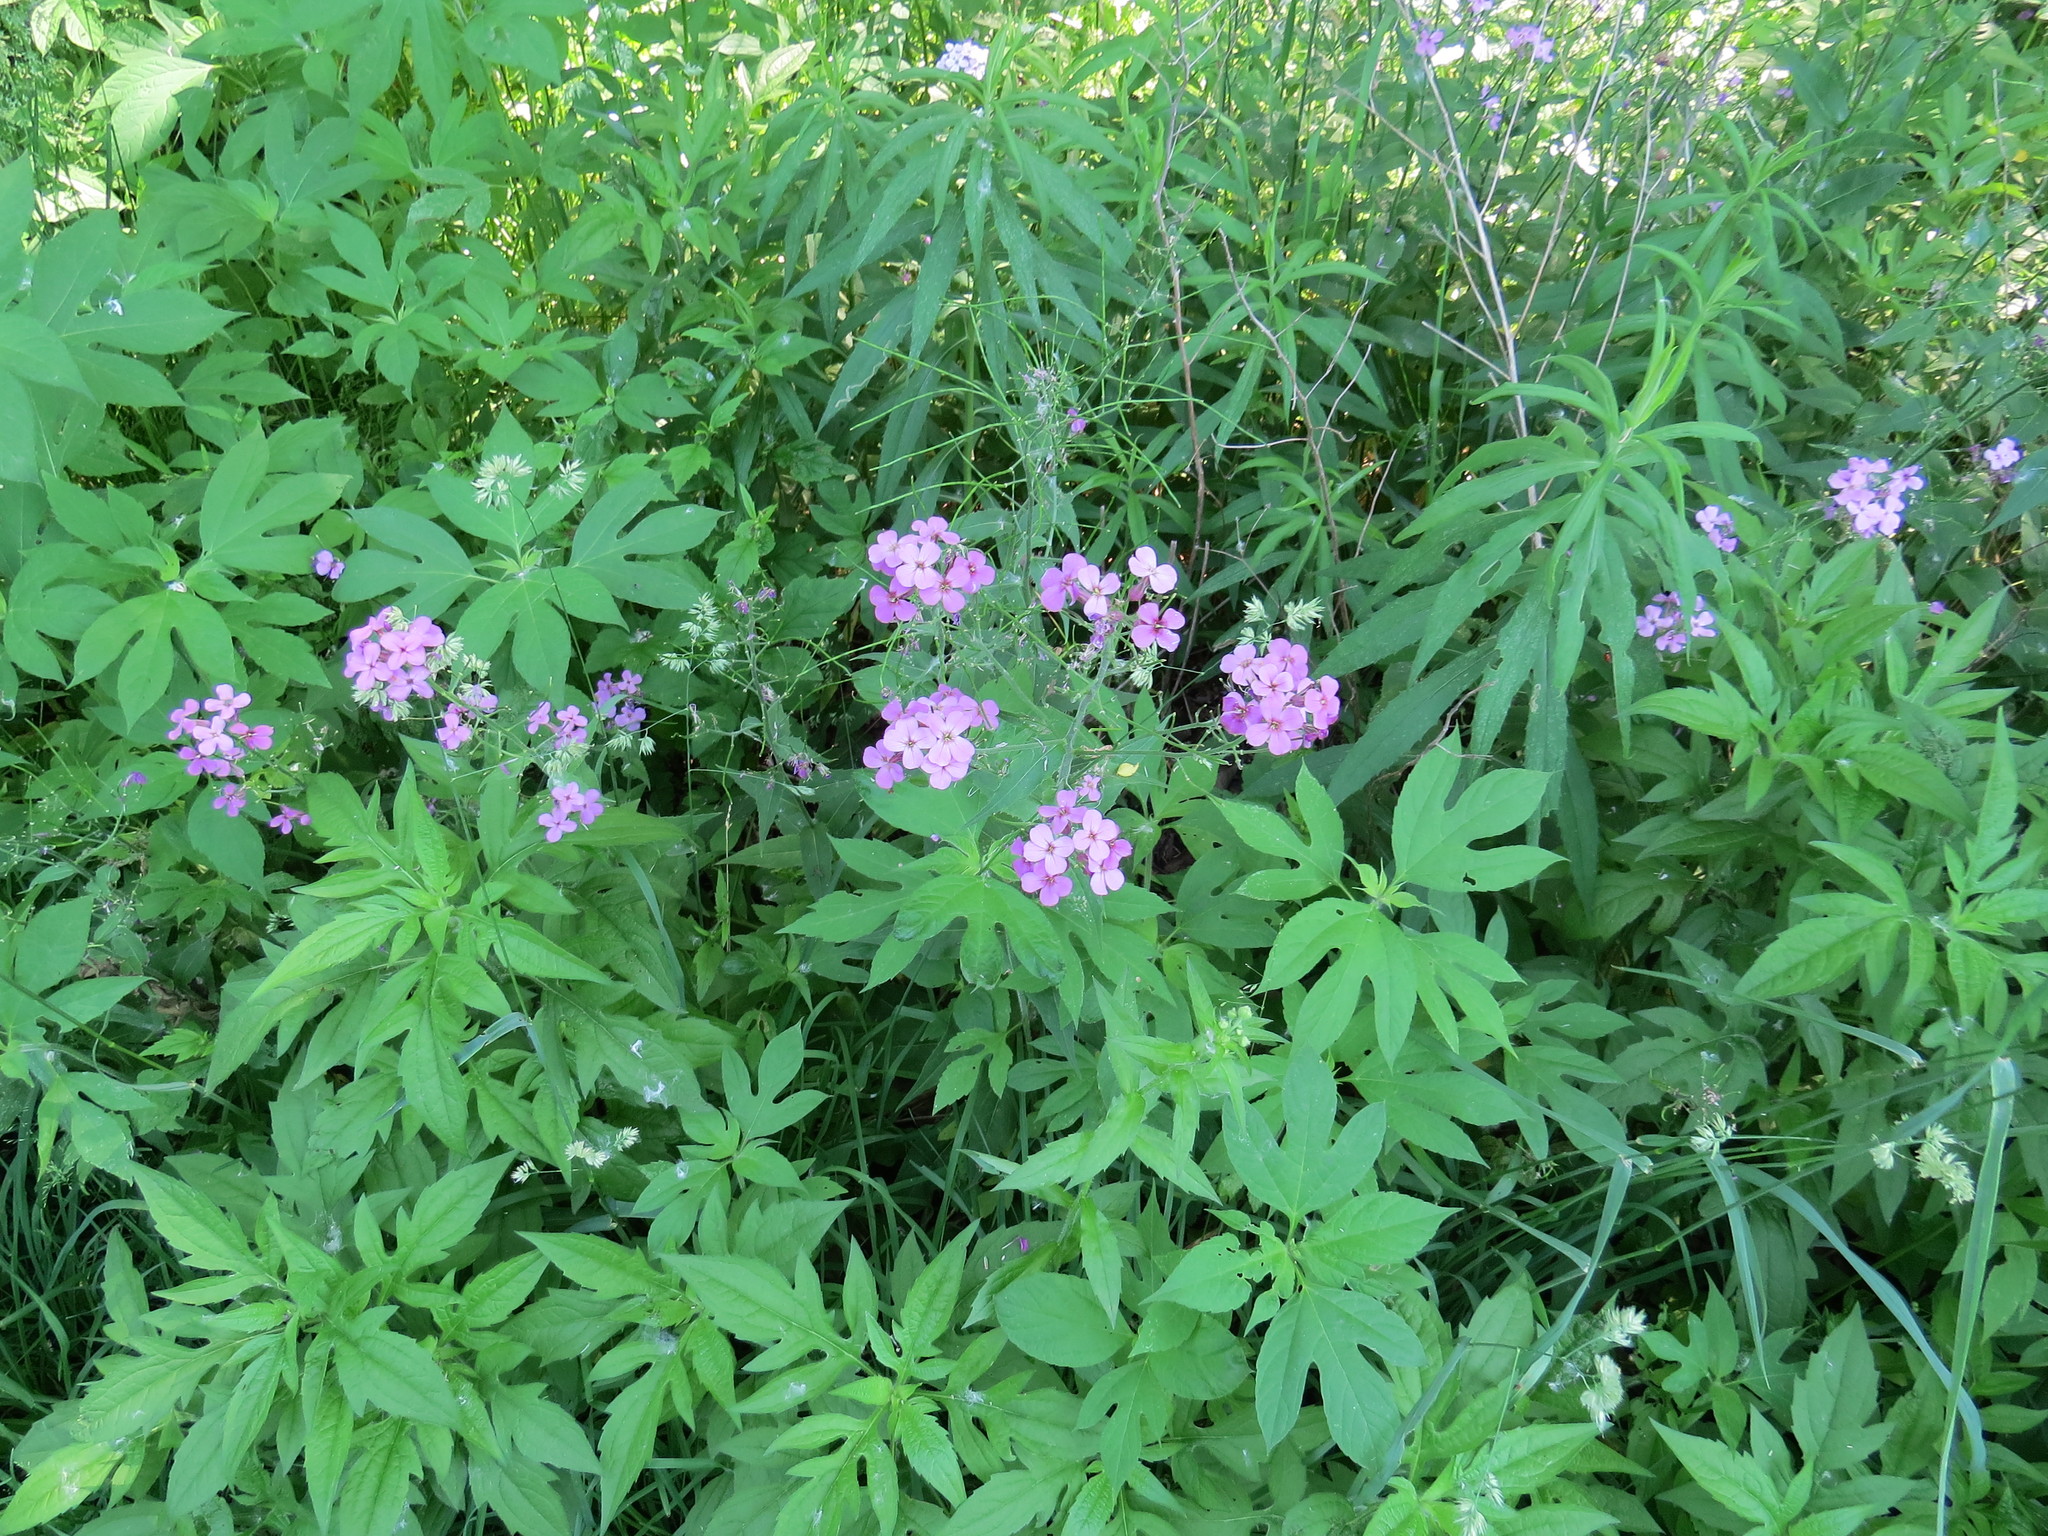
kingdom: Plantae
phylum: Tracheophyta
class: Magnoliopsida
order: Brassicales
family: Brassicaceae
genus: Hesperis
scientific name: Hesperis matronalis
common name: Dame's-violet
